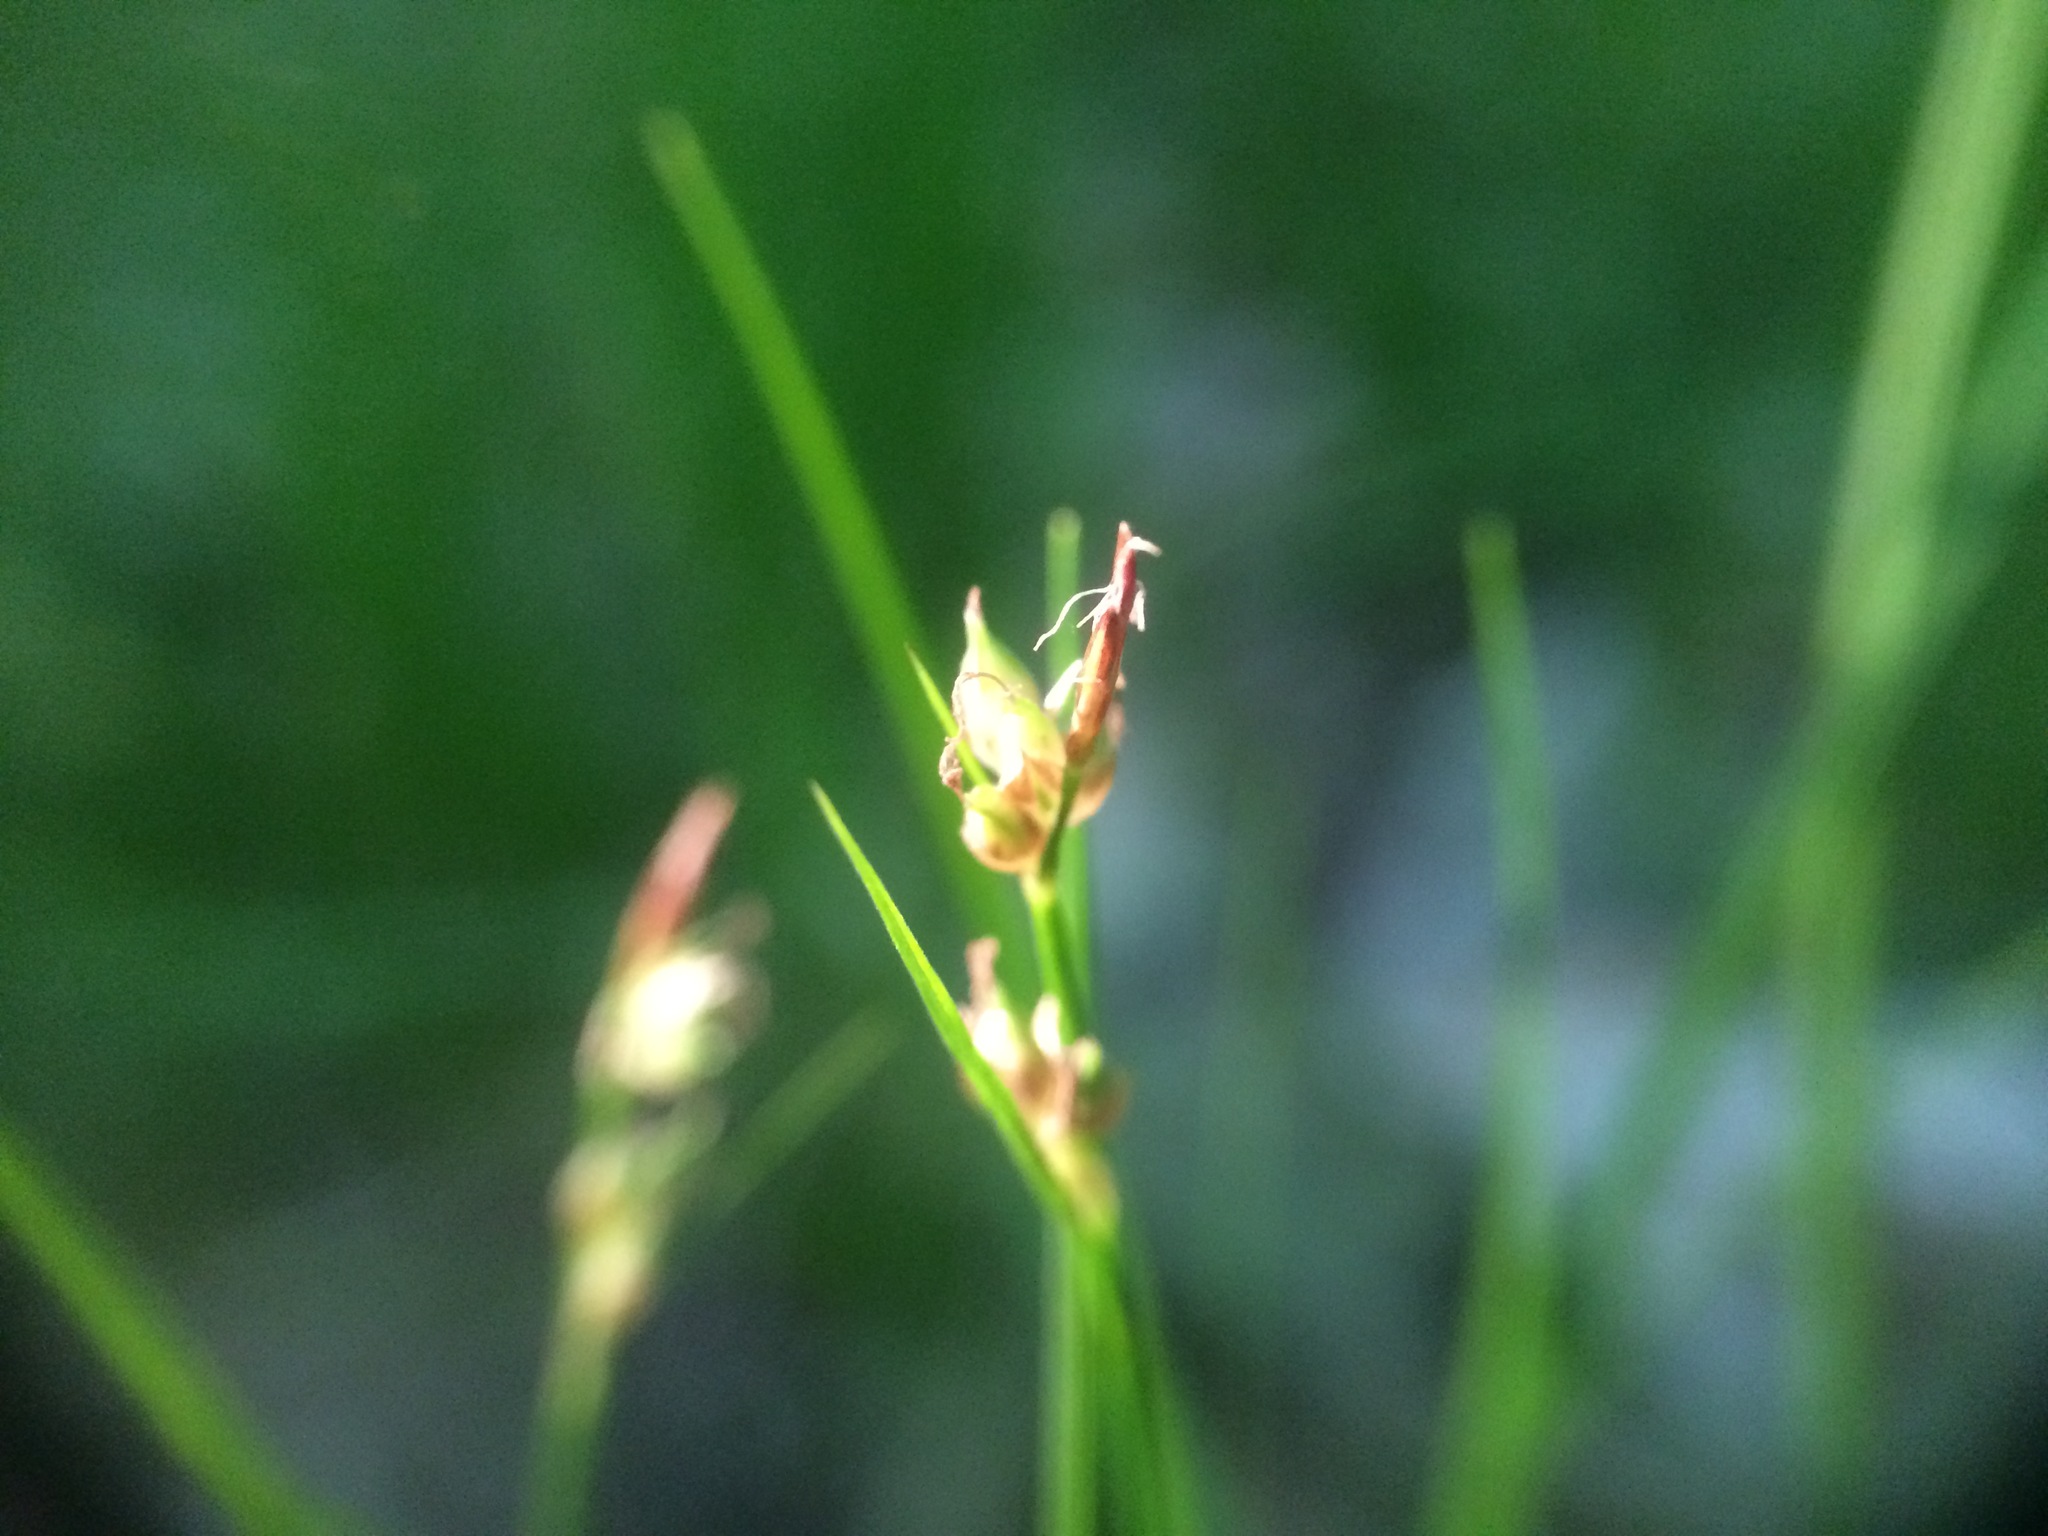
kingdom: Plantae
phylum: Tracheophyta
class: Liliopsida
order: Poales
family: Cyperaceae
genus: Carex
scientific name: Carex novae-angliae
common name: New england sedge
